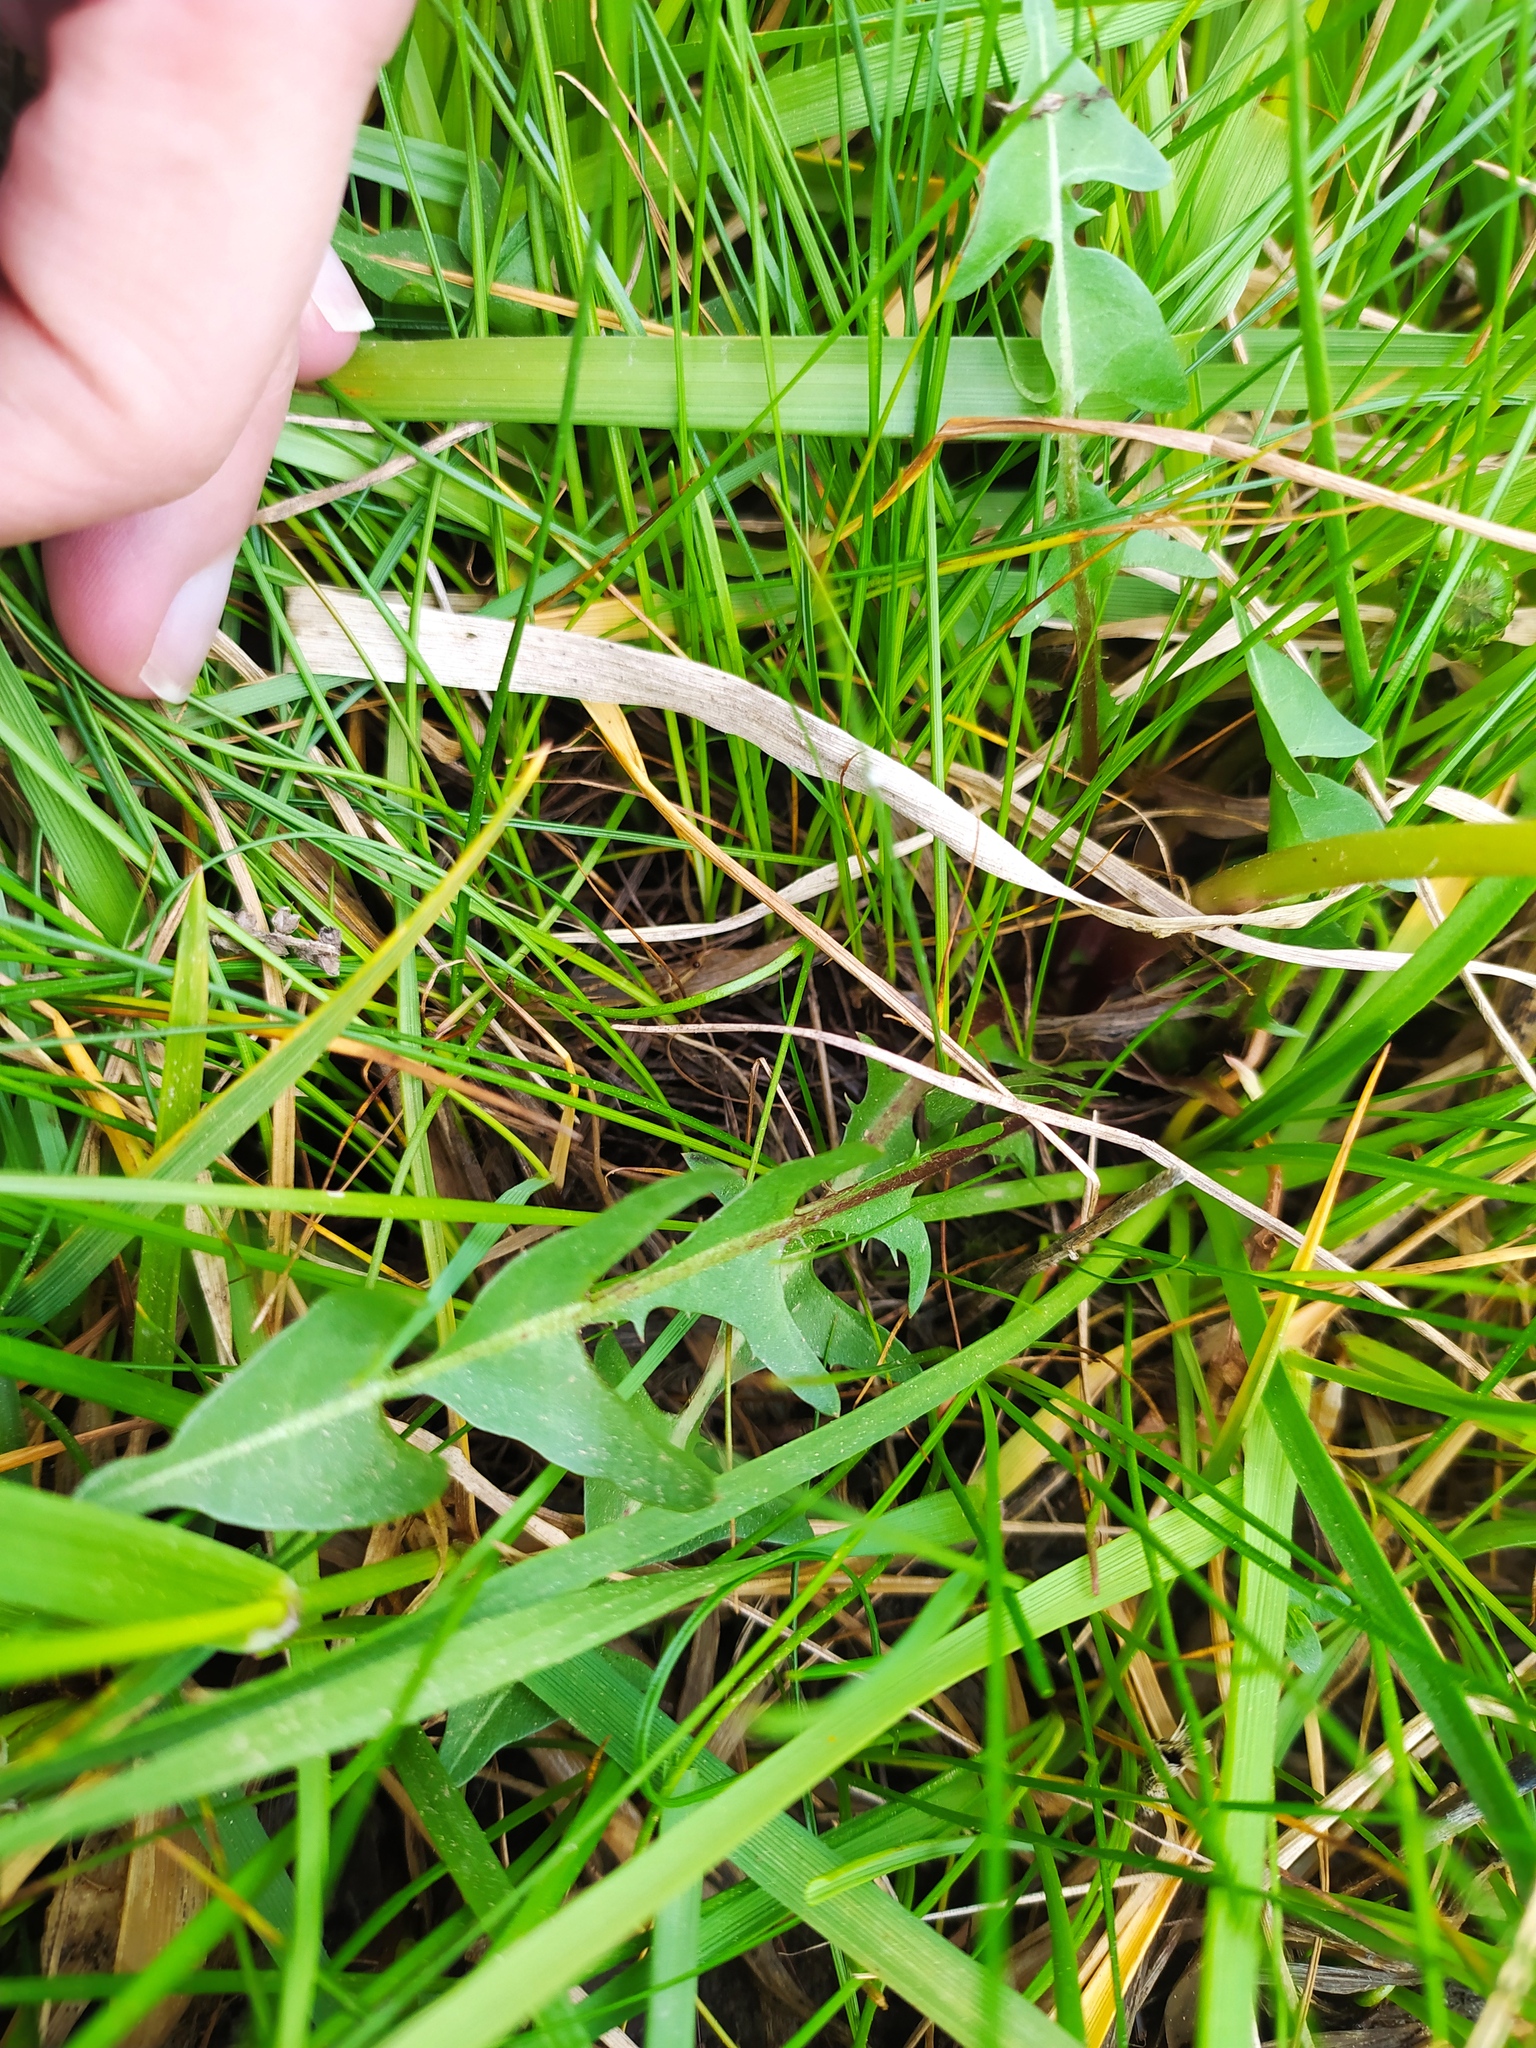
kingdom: Plantae
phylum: Tracheophyta
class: Magnoliopsida
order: Asterales
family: Asteraceae
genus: Taraxacum
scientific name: Taraxacum copidophyllum
